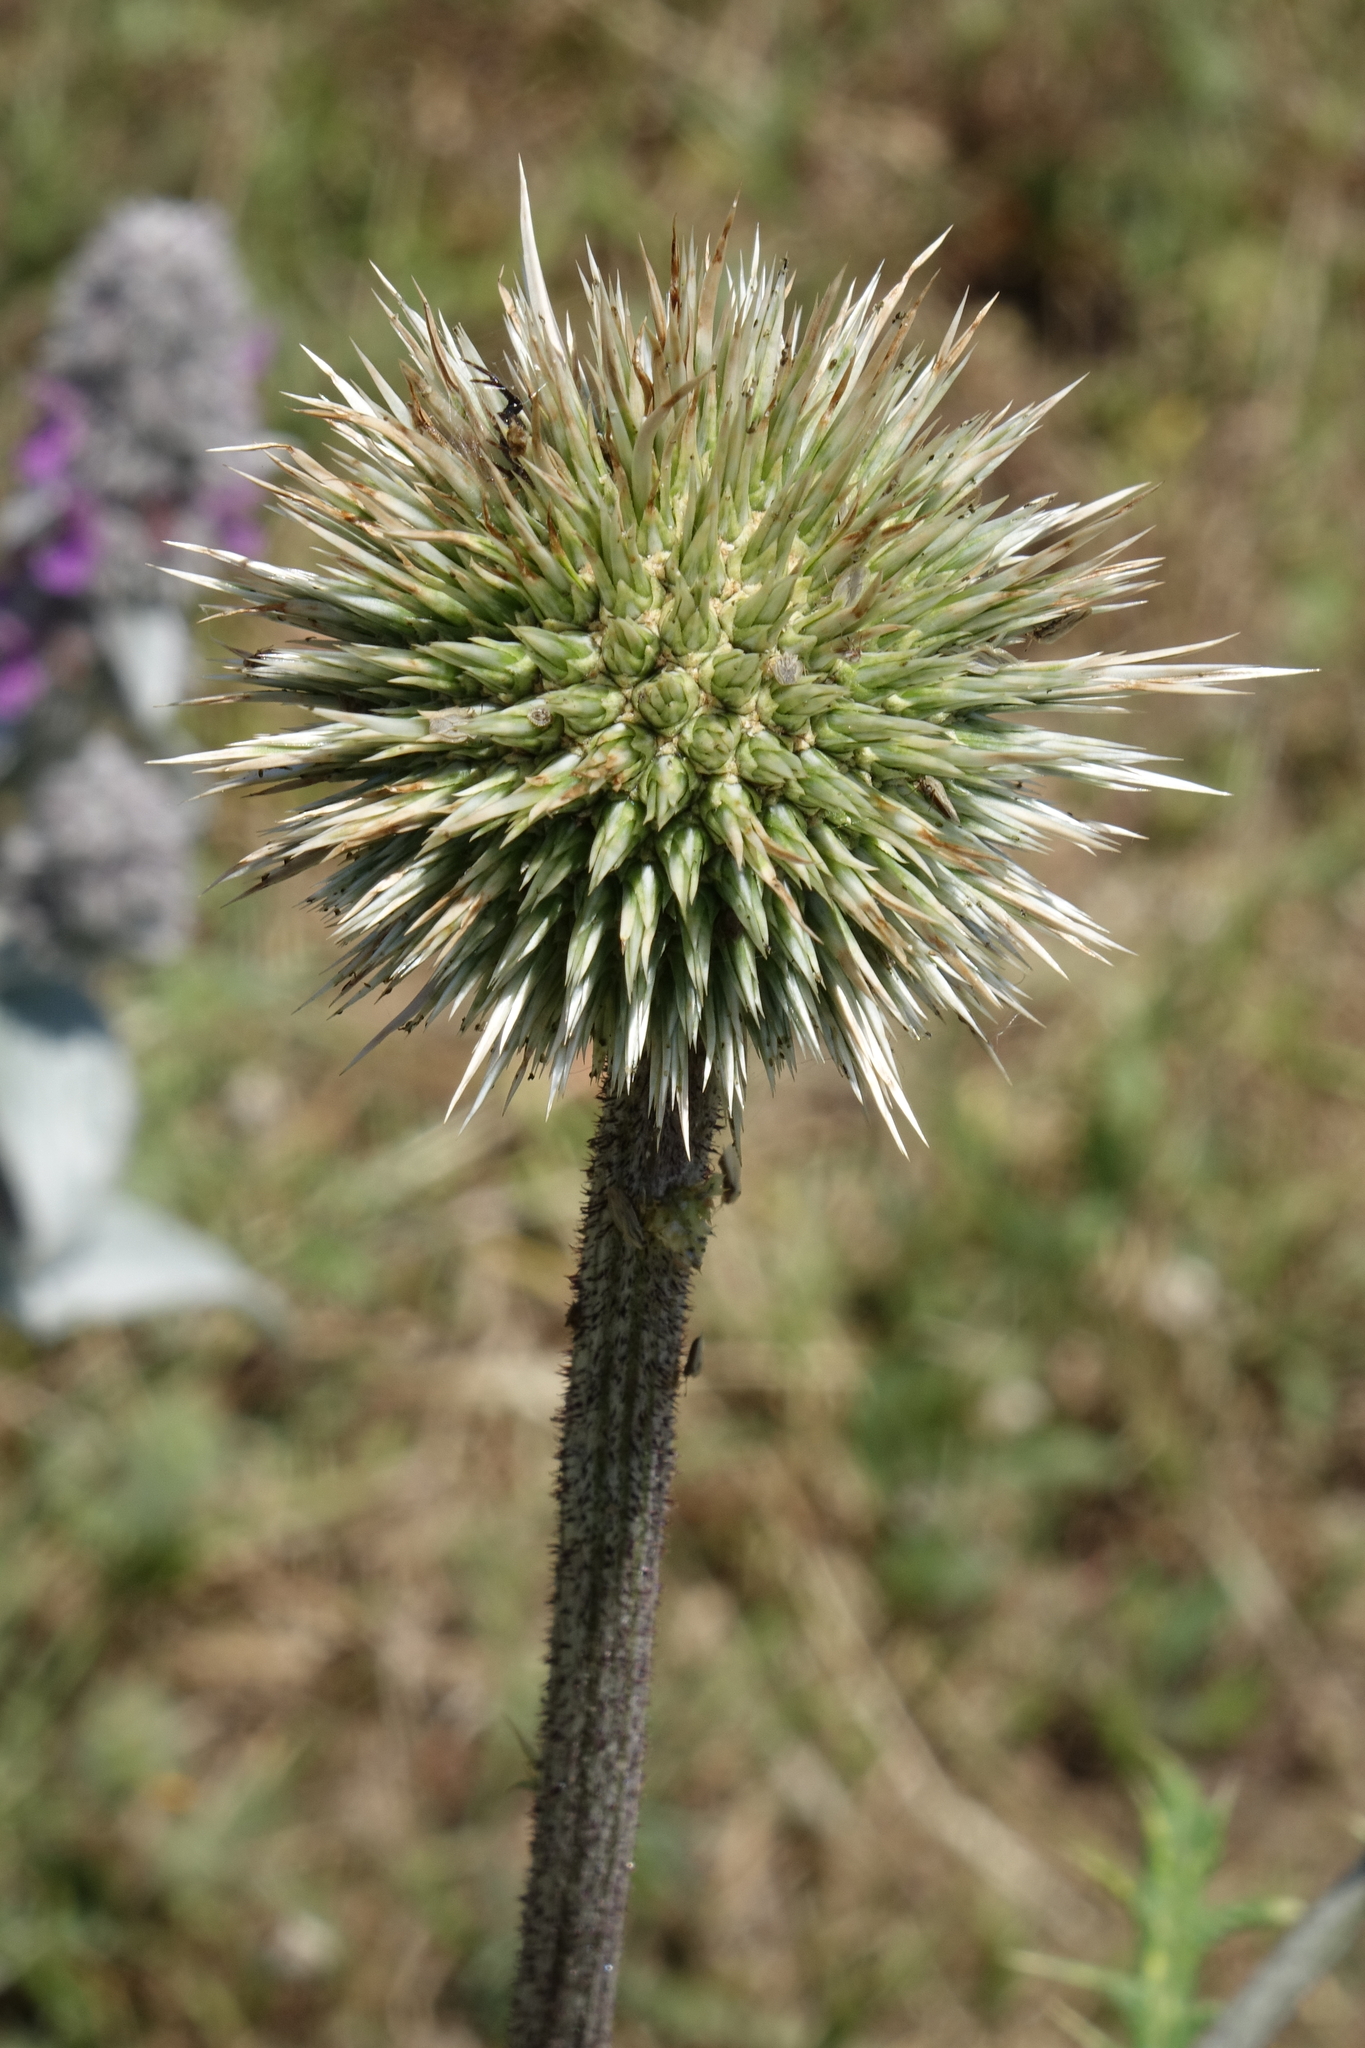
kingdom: Plantae
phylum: Tracheophyta
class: Magnoliopsida
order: Asterales
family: Asteraceae
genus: Echinops
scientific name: Echinops sphaerocephalus
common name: Glandular globe-thistle
